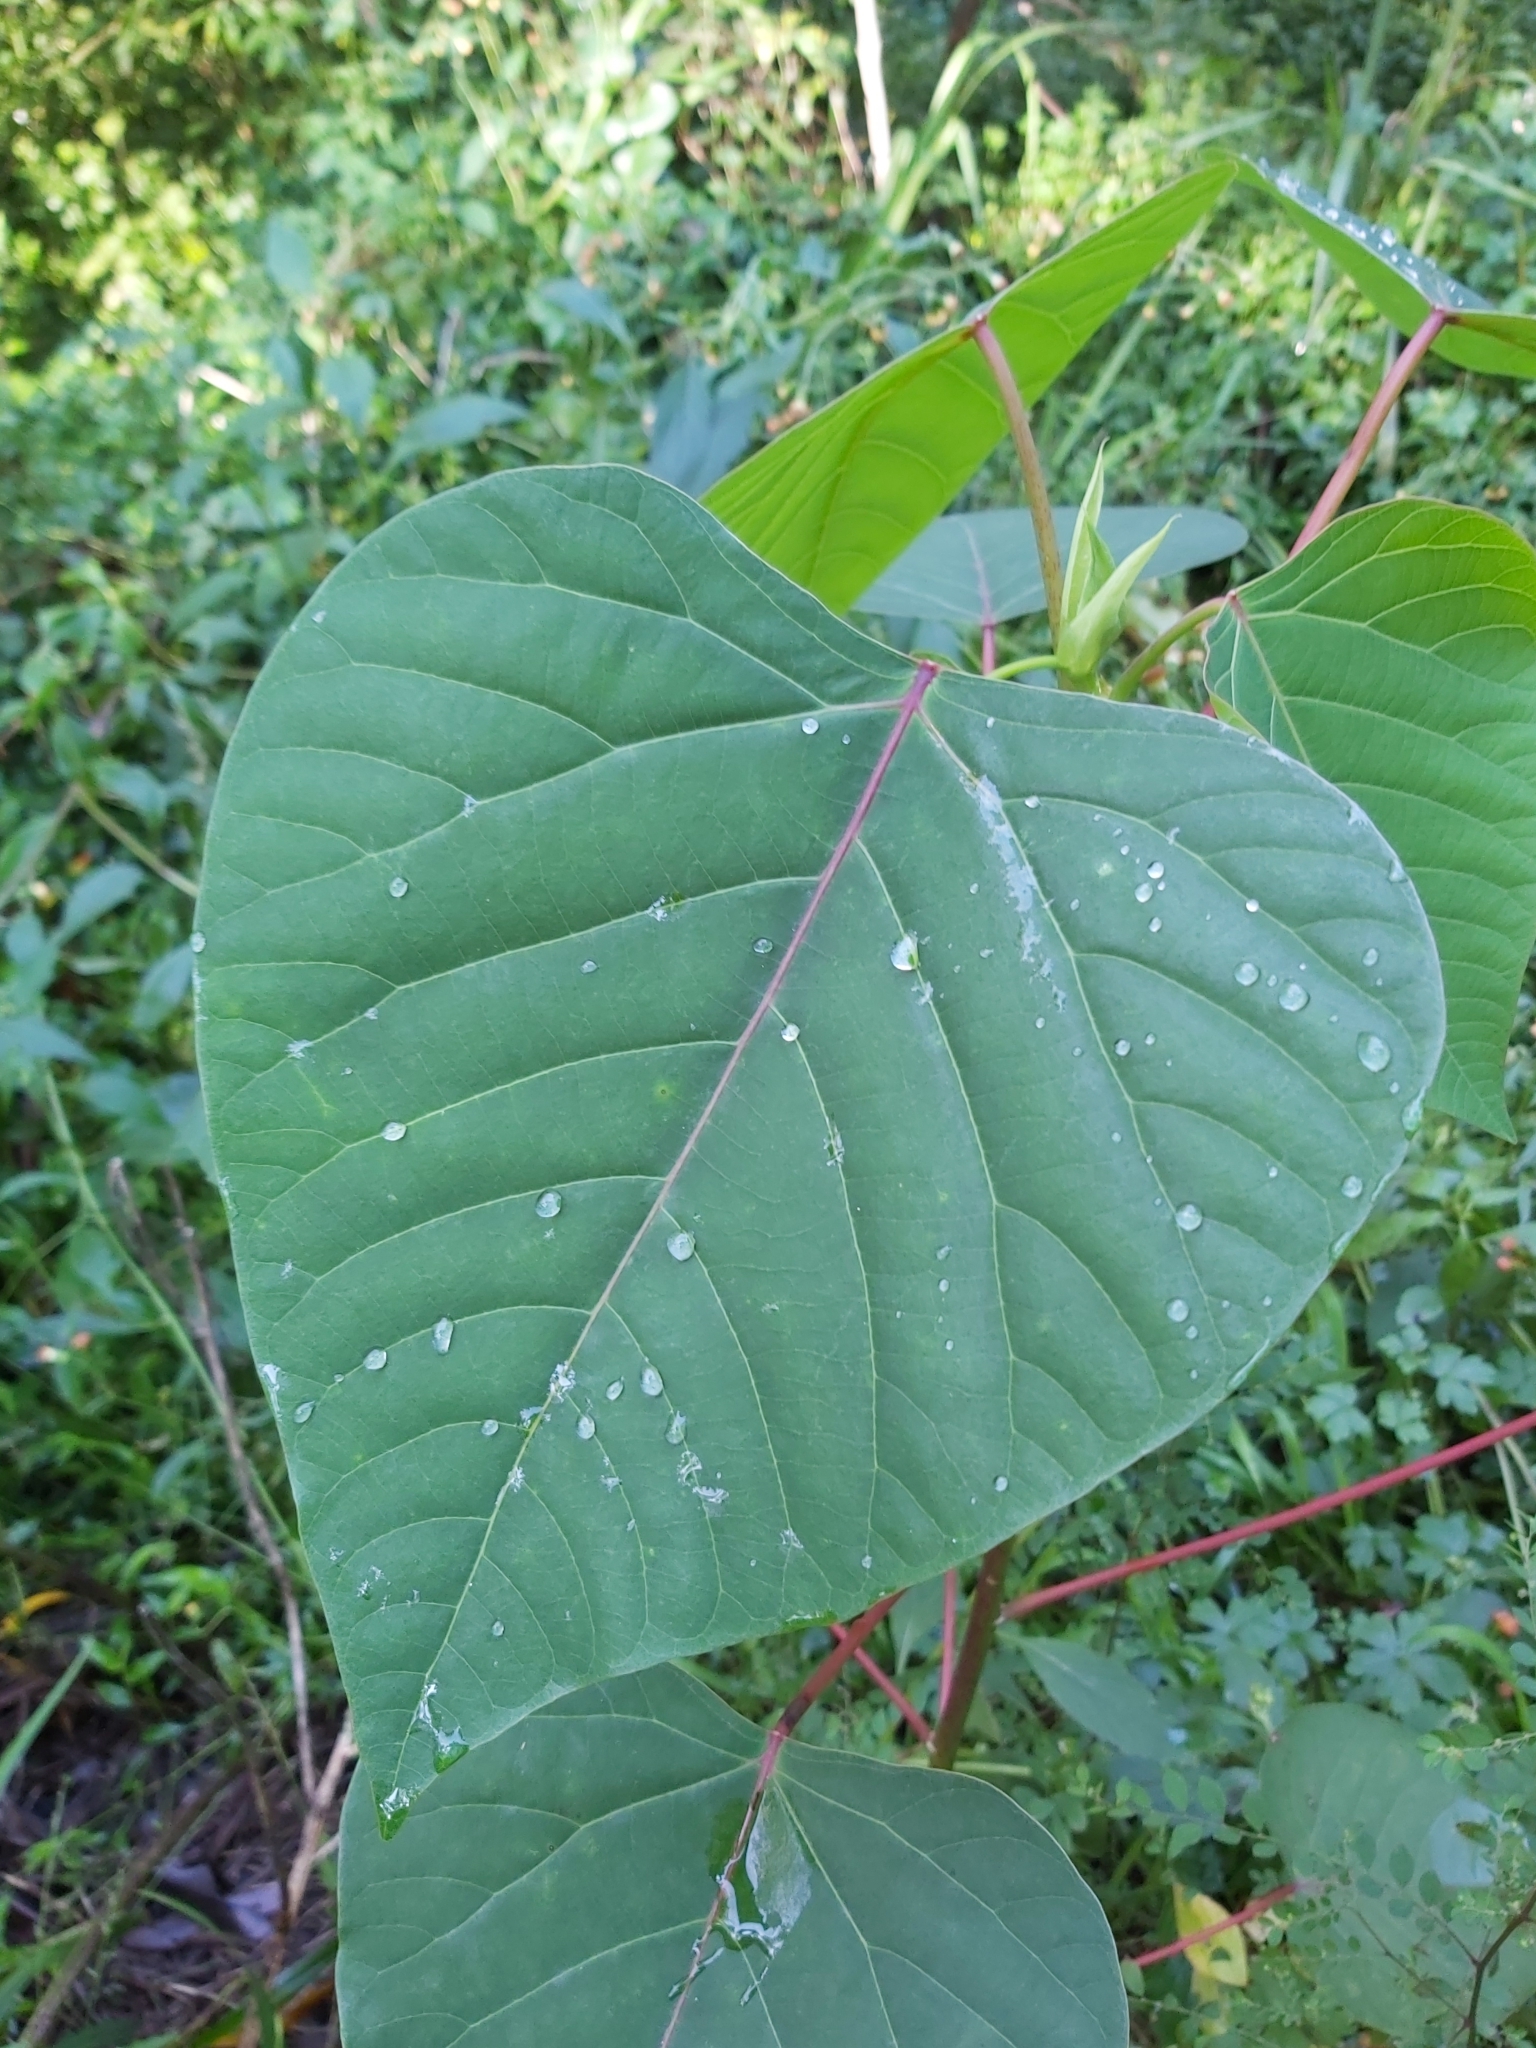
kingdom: Plantae
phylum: Tracheophyta
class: Magnoliopsida
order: Malpighiales
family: Euphorbiaceae
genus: Homalanthus
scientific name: Homalanthus populifolius
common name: Queensland poplar
